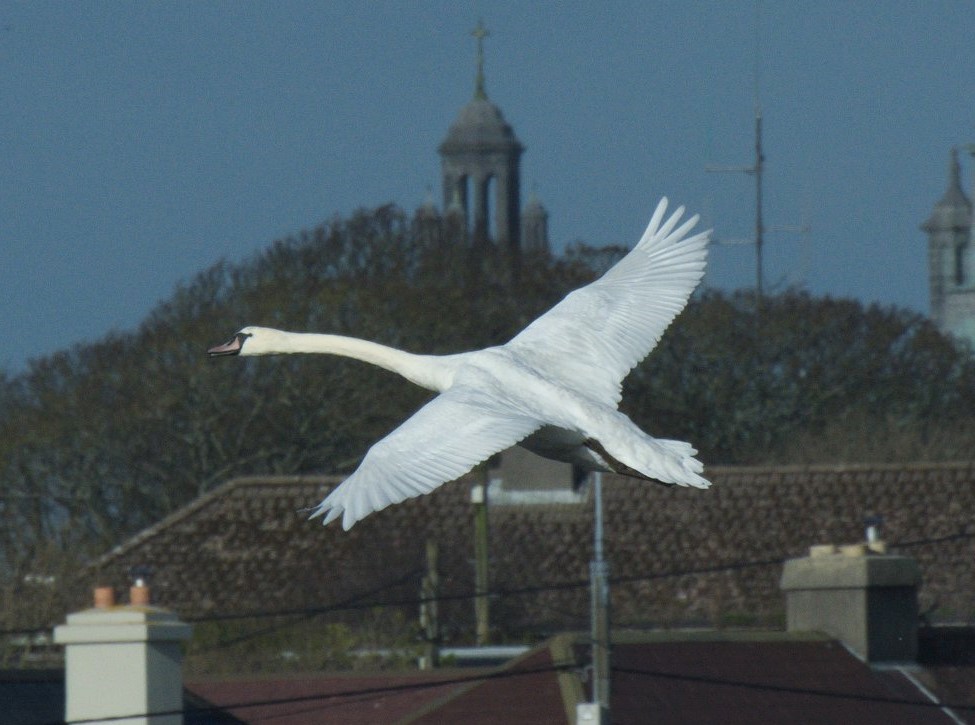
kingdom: Animalia
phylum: Chordata
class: Aves
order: Anseriformes
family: Anatidae
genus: Cygnus
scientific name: Cygnus olor
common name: Mute swan
